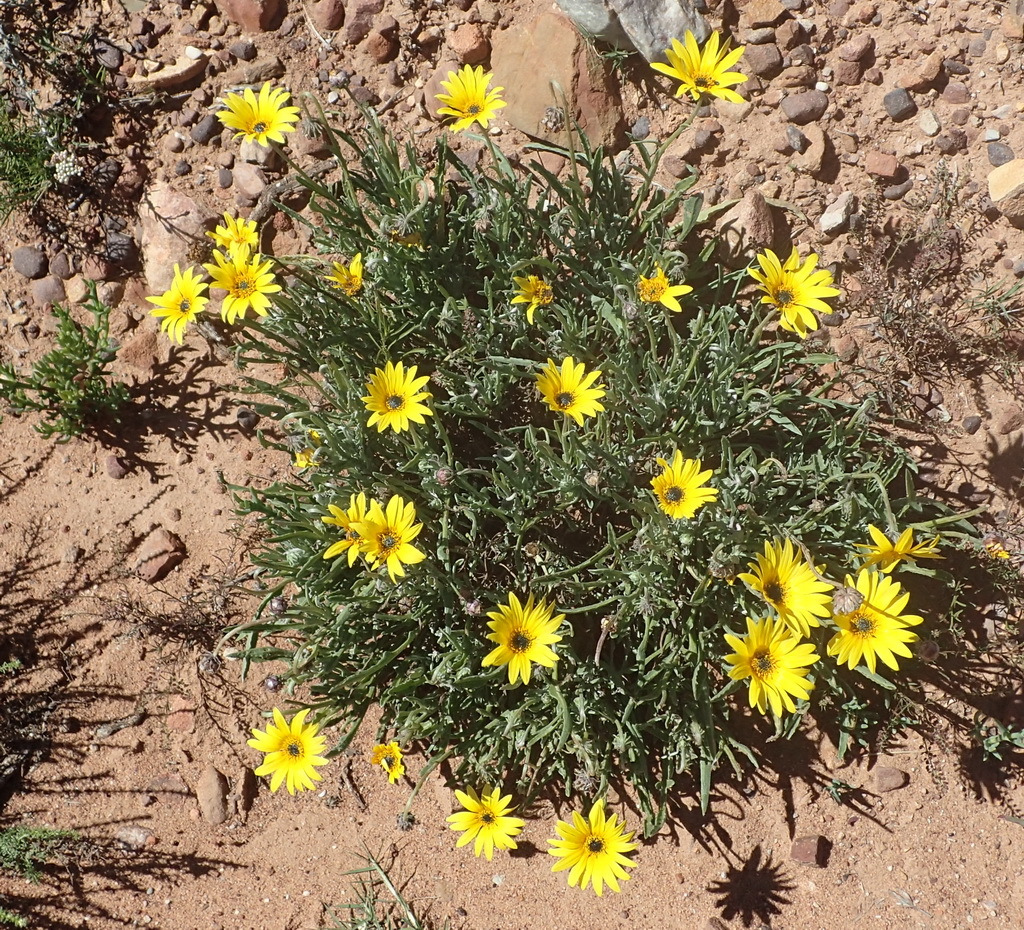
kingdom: Plantae
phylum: Tracheophyta
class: Magnoliopsida
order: Asterales
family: Asteraceae
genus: Arctotis
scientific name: Arctotis lanceolata
